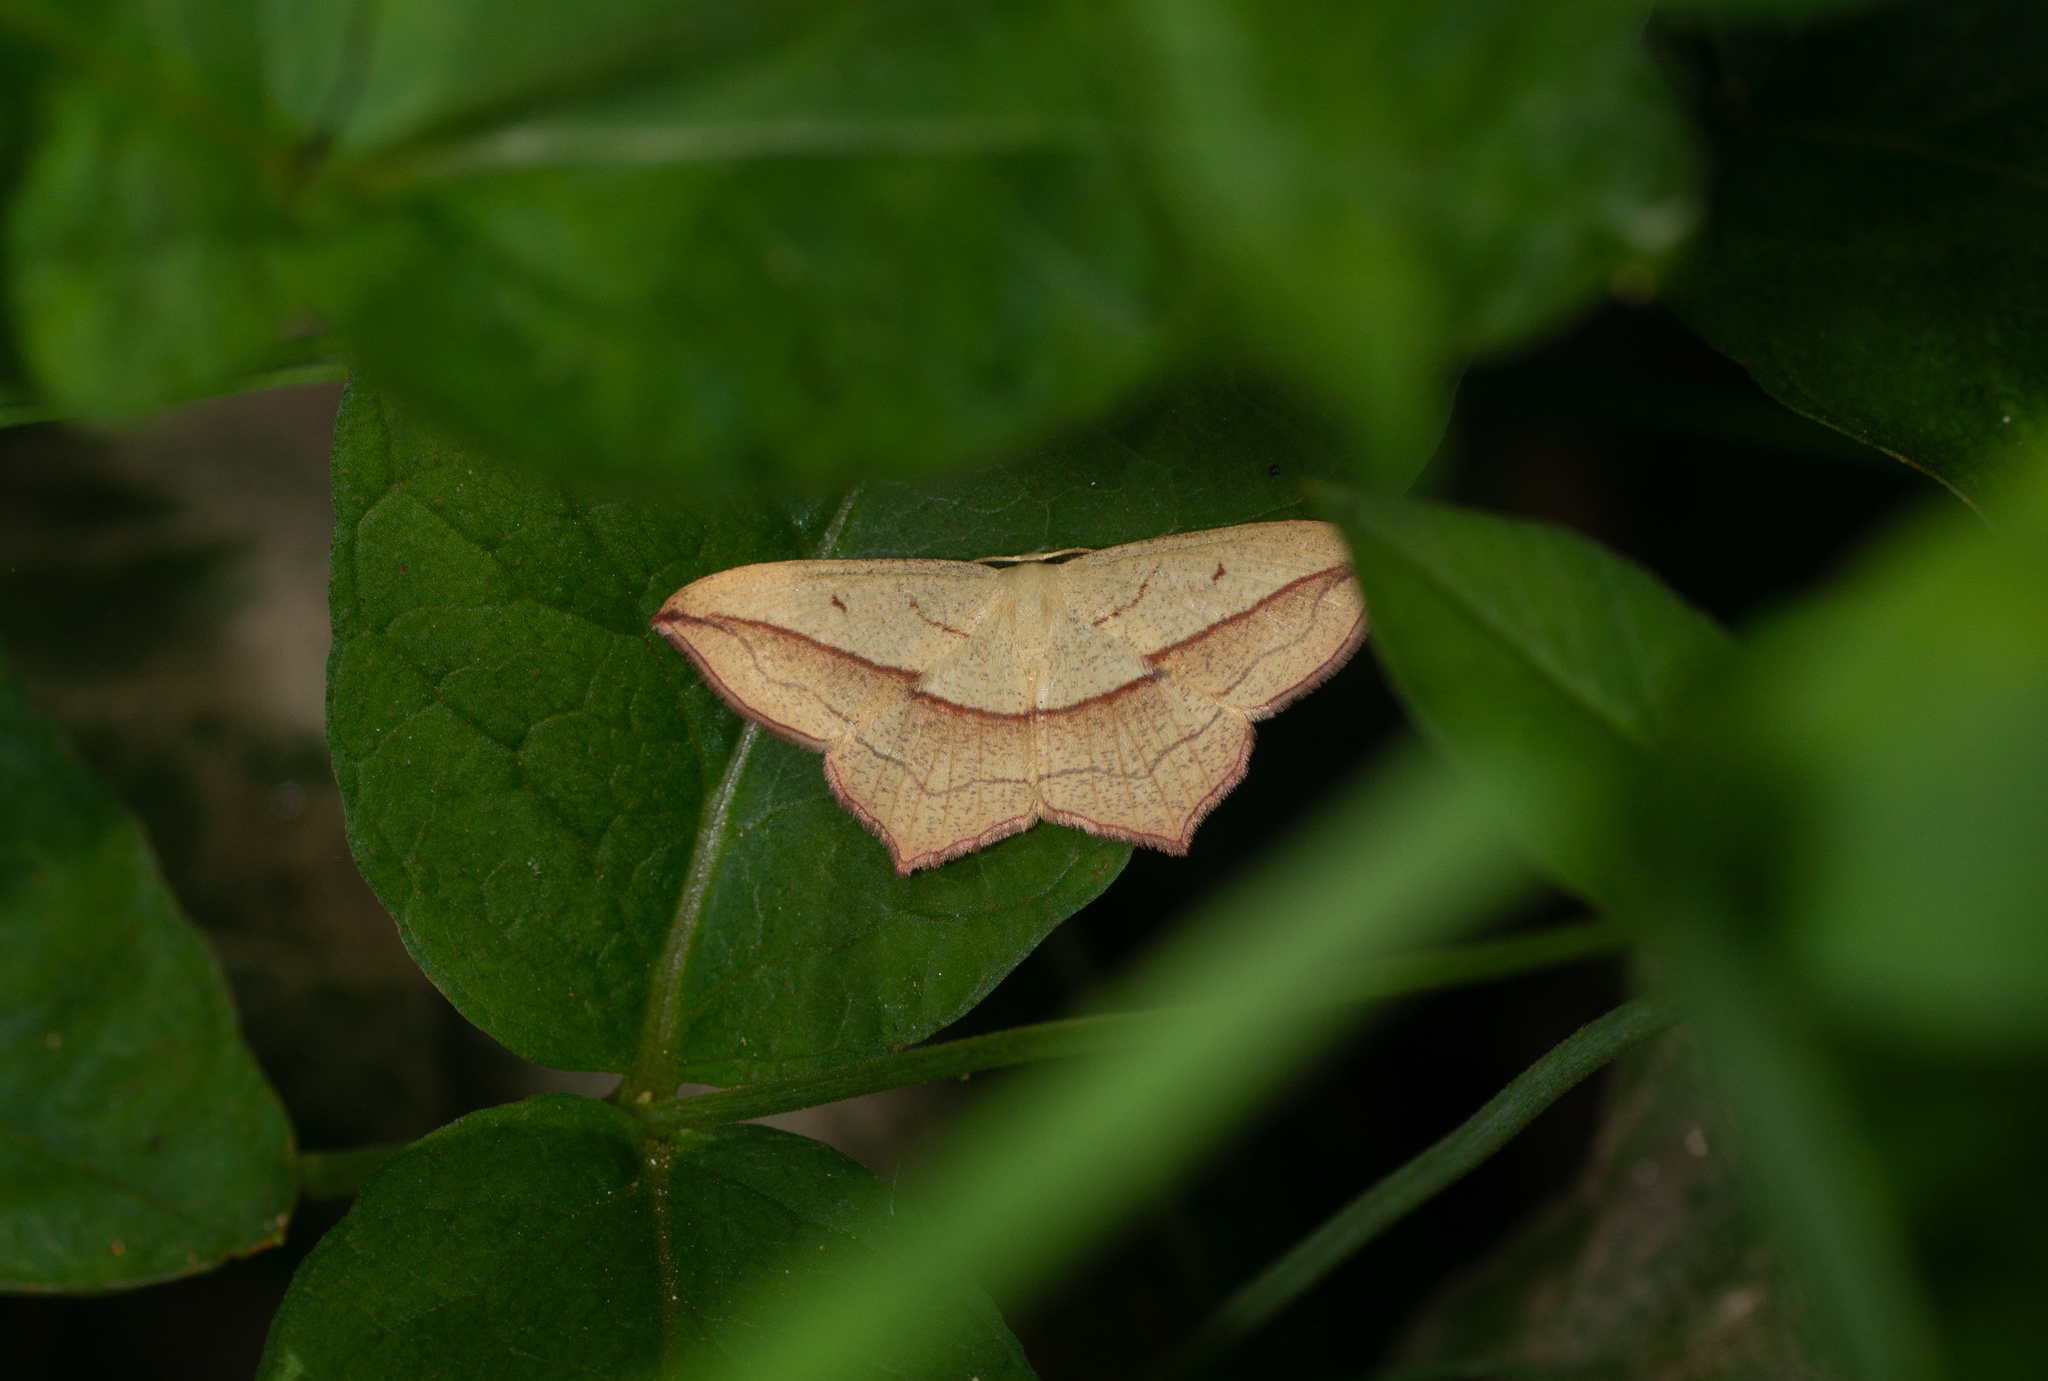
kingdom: Animalia
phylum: Arthropoda
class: Insecta
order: Lepidoptera
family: Geometridae
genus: Timandra
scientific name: Timandra comae
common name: Blood-vein
